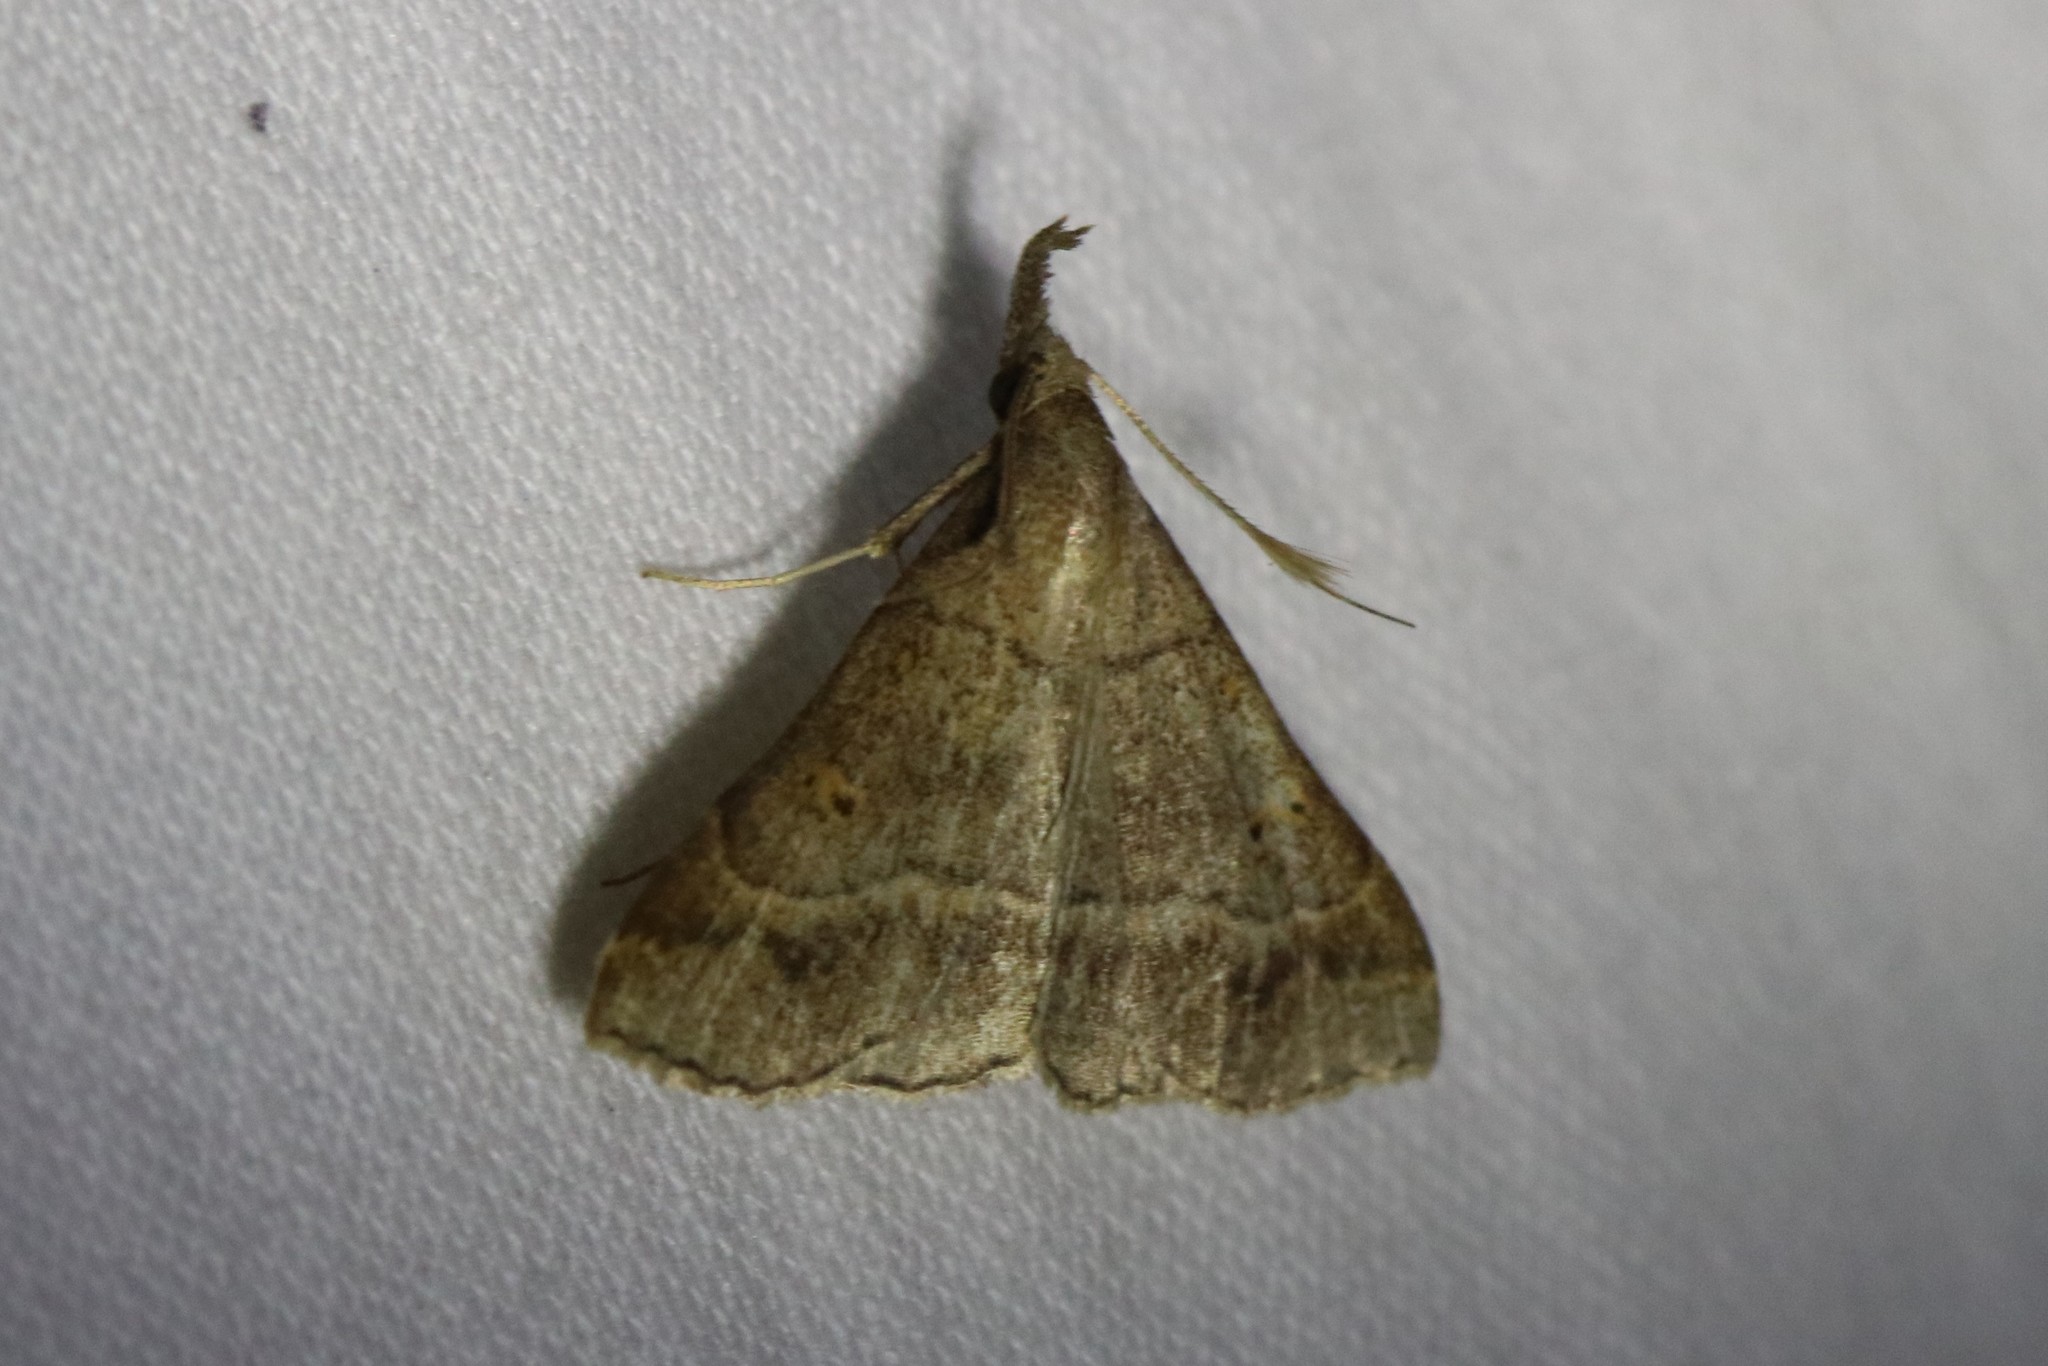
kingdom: Animalia
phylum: Arthropoda
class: Insecta
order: Lepidoptera
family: Erebidae
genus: Renia
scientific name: Renia flavipunctalis
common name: Yellow-spotted renia moth
